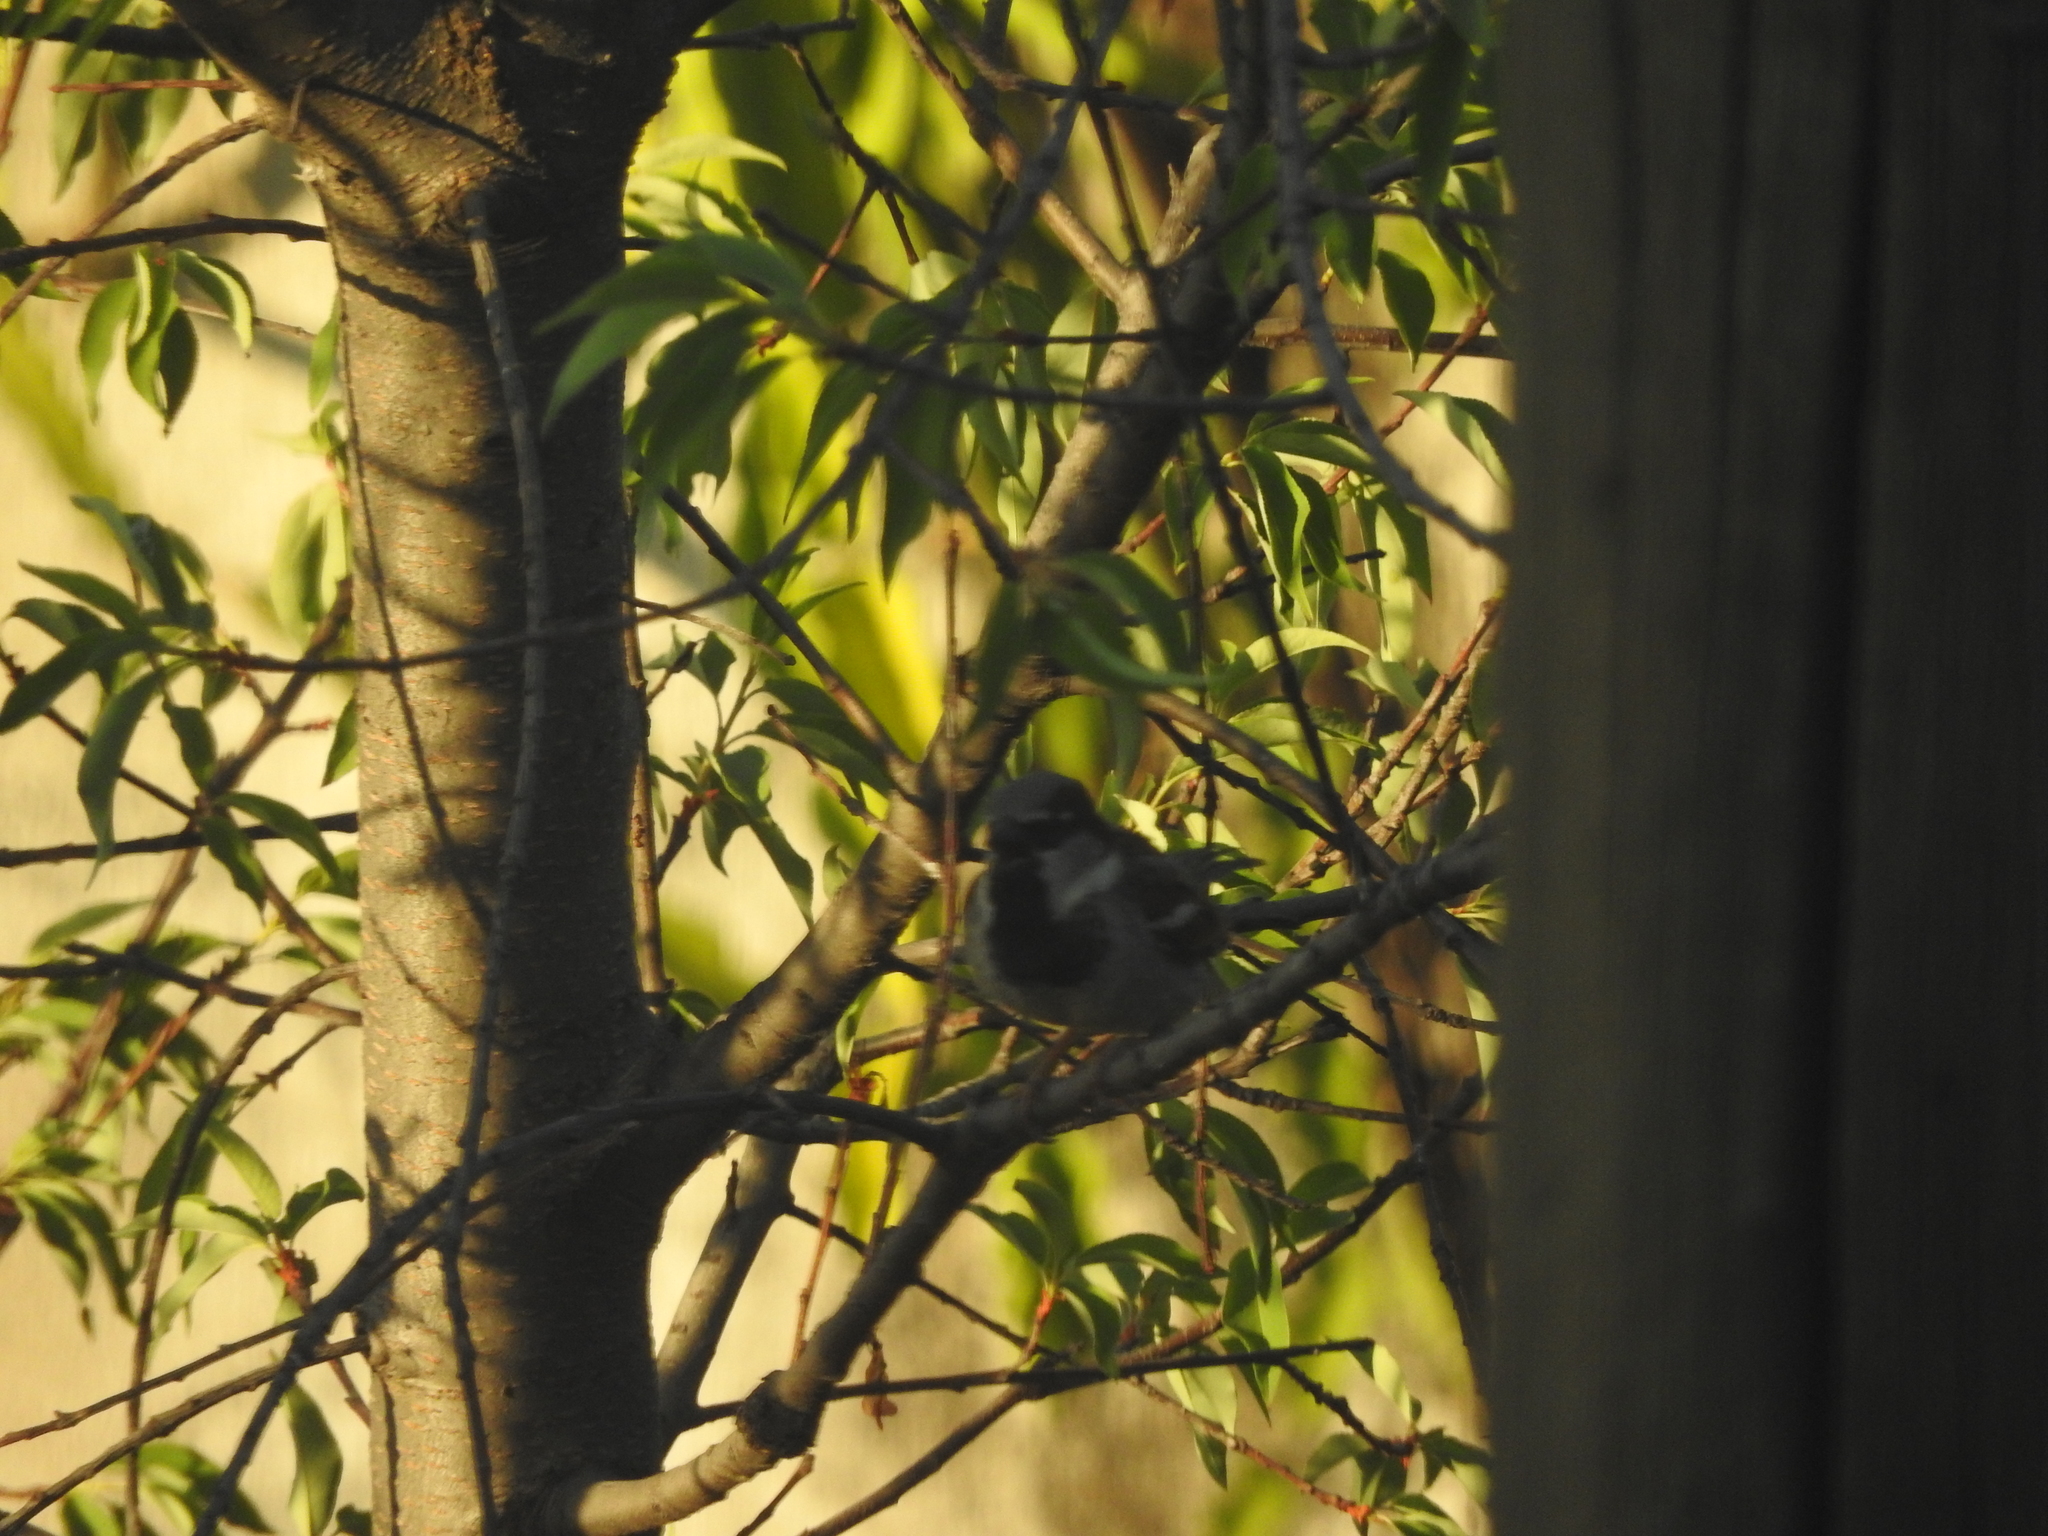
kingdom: Animalia
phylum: Chordata
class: Aves
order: Passeriformes
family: Passeridae
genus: Passer
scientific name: Passer domesticus
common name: House sparrow
